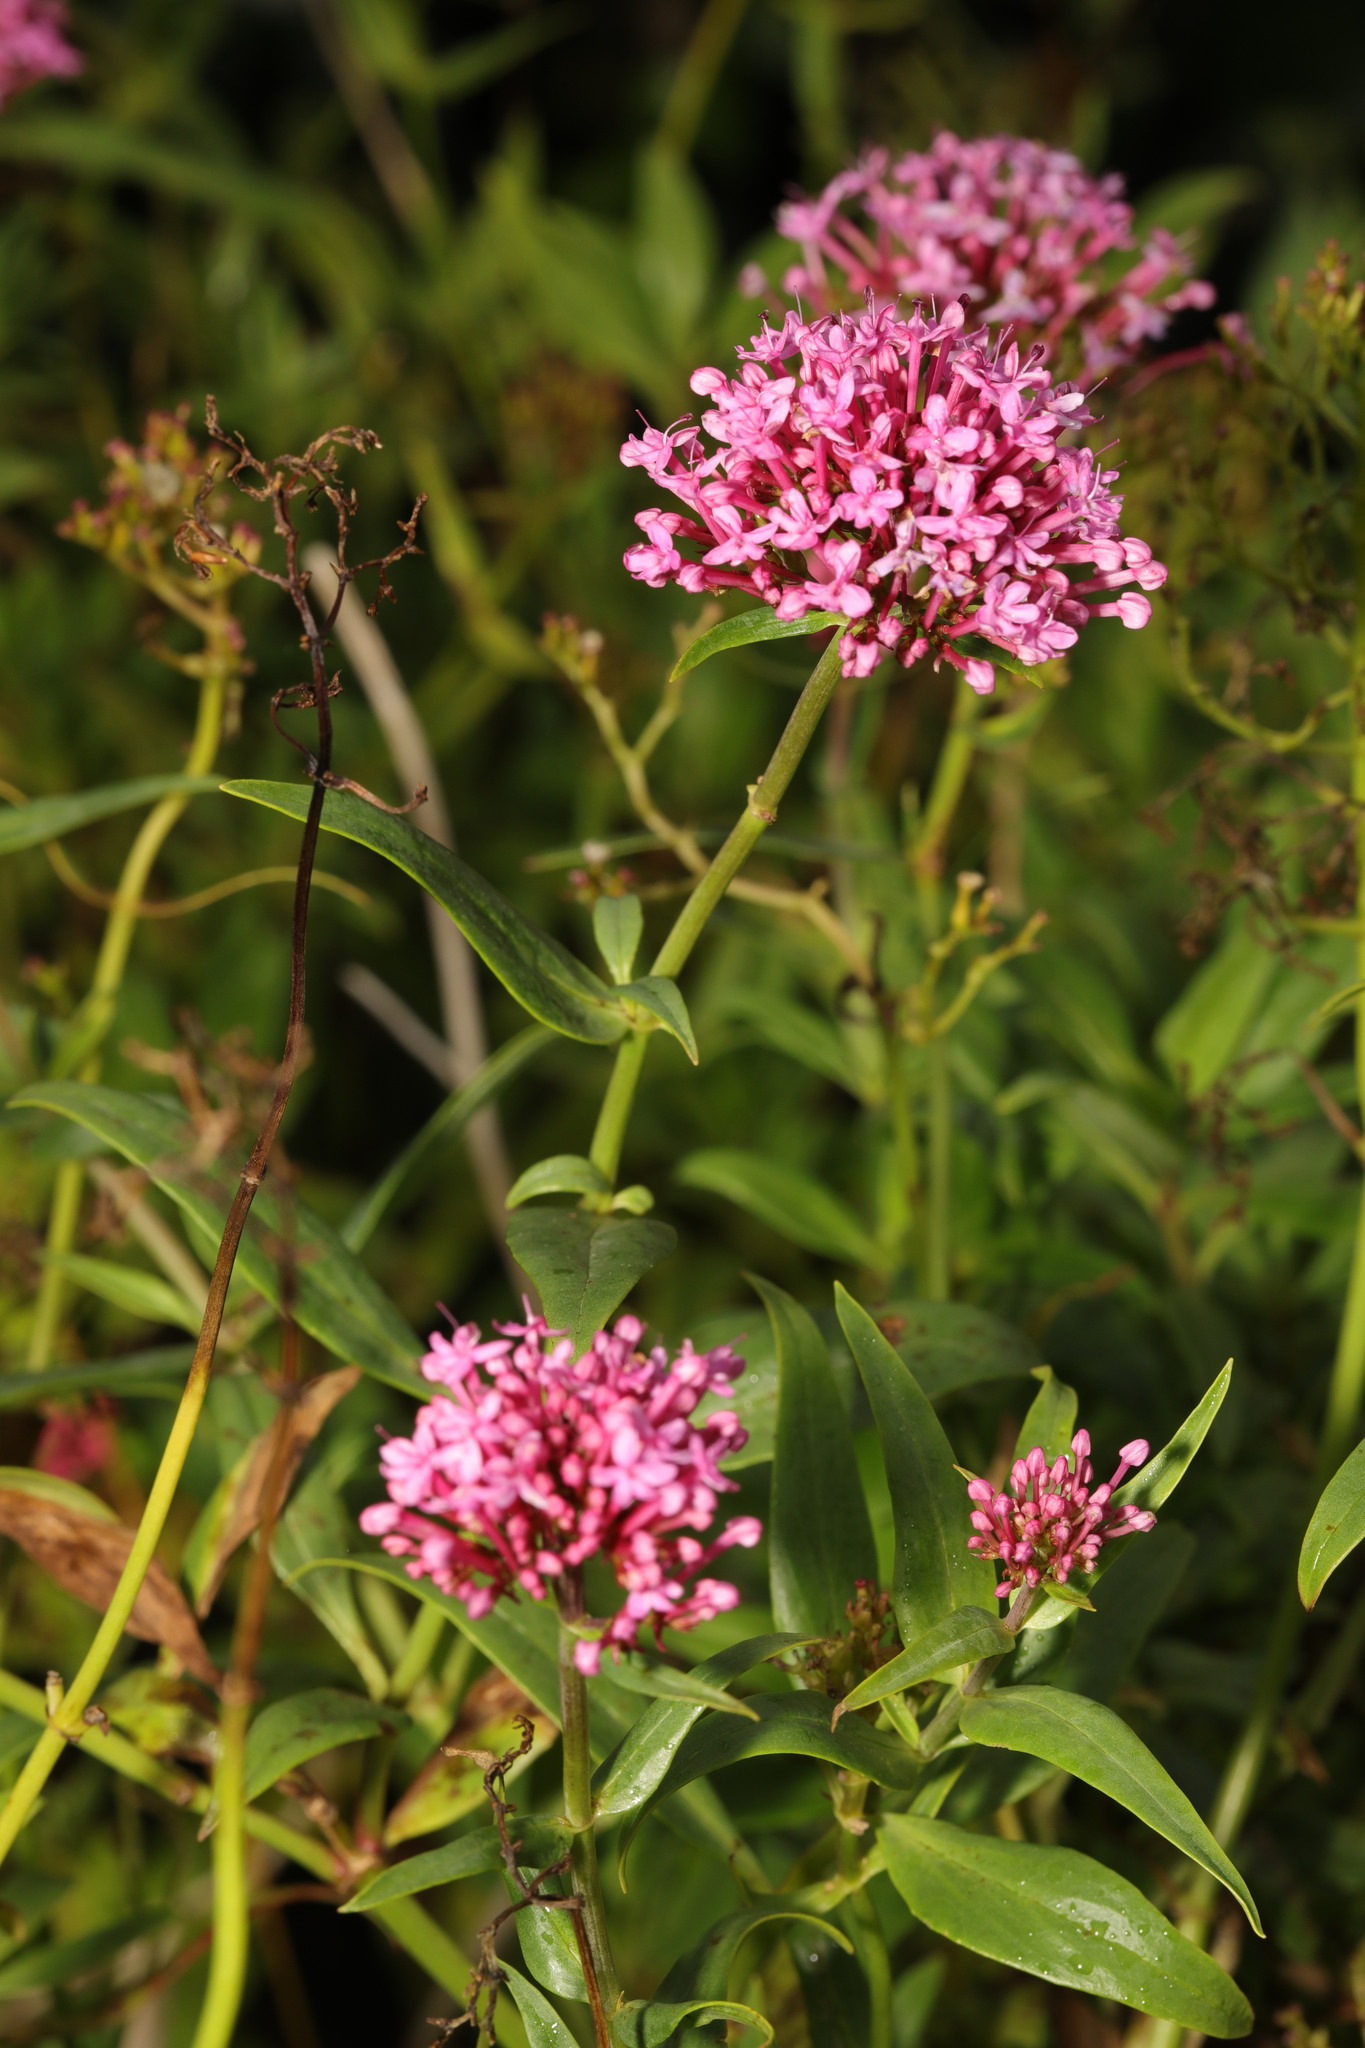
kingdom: Plantae
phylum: Tracheophyta
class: Magnoliopsida
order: Dipsacales
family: Caprifoliaceae
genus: Centranthus
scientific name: Centranthus ruber
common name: Red valerian
